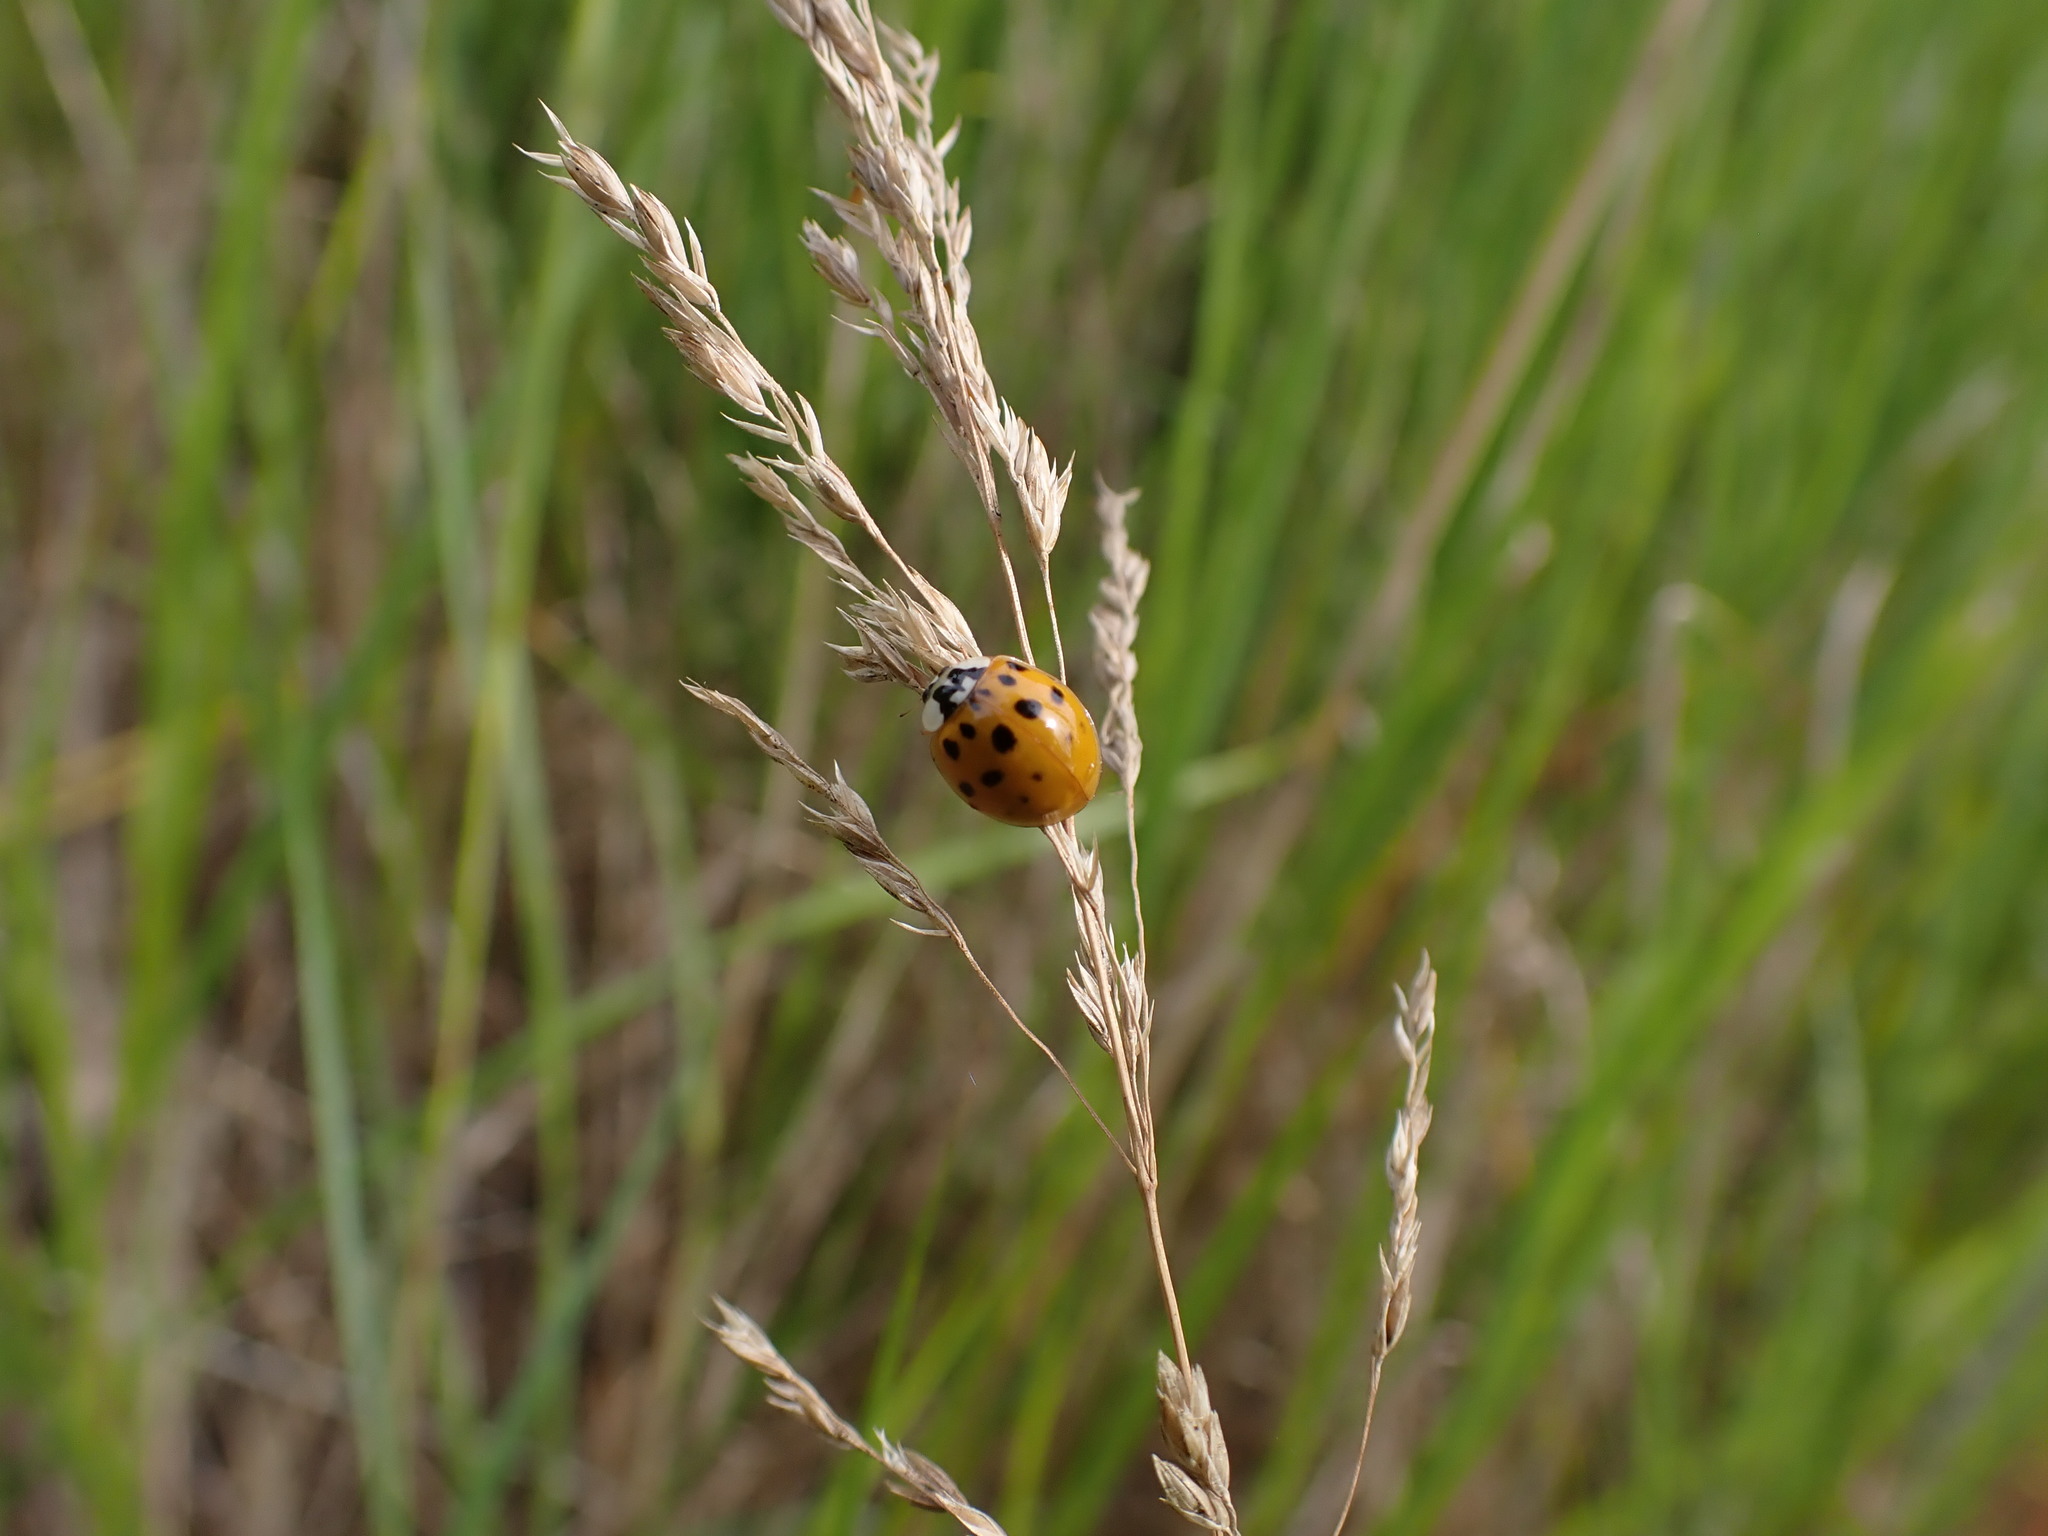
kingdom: Animalia
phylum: Arthropoda
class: Insecta
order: Coleoptera
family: Coccinellidae
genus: Harmonia
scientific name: Harmonia axyridis
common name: Harlequin ladybird
